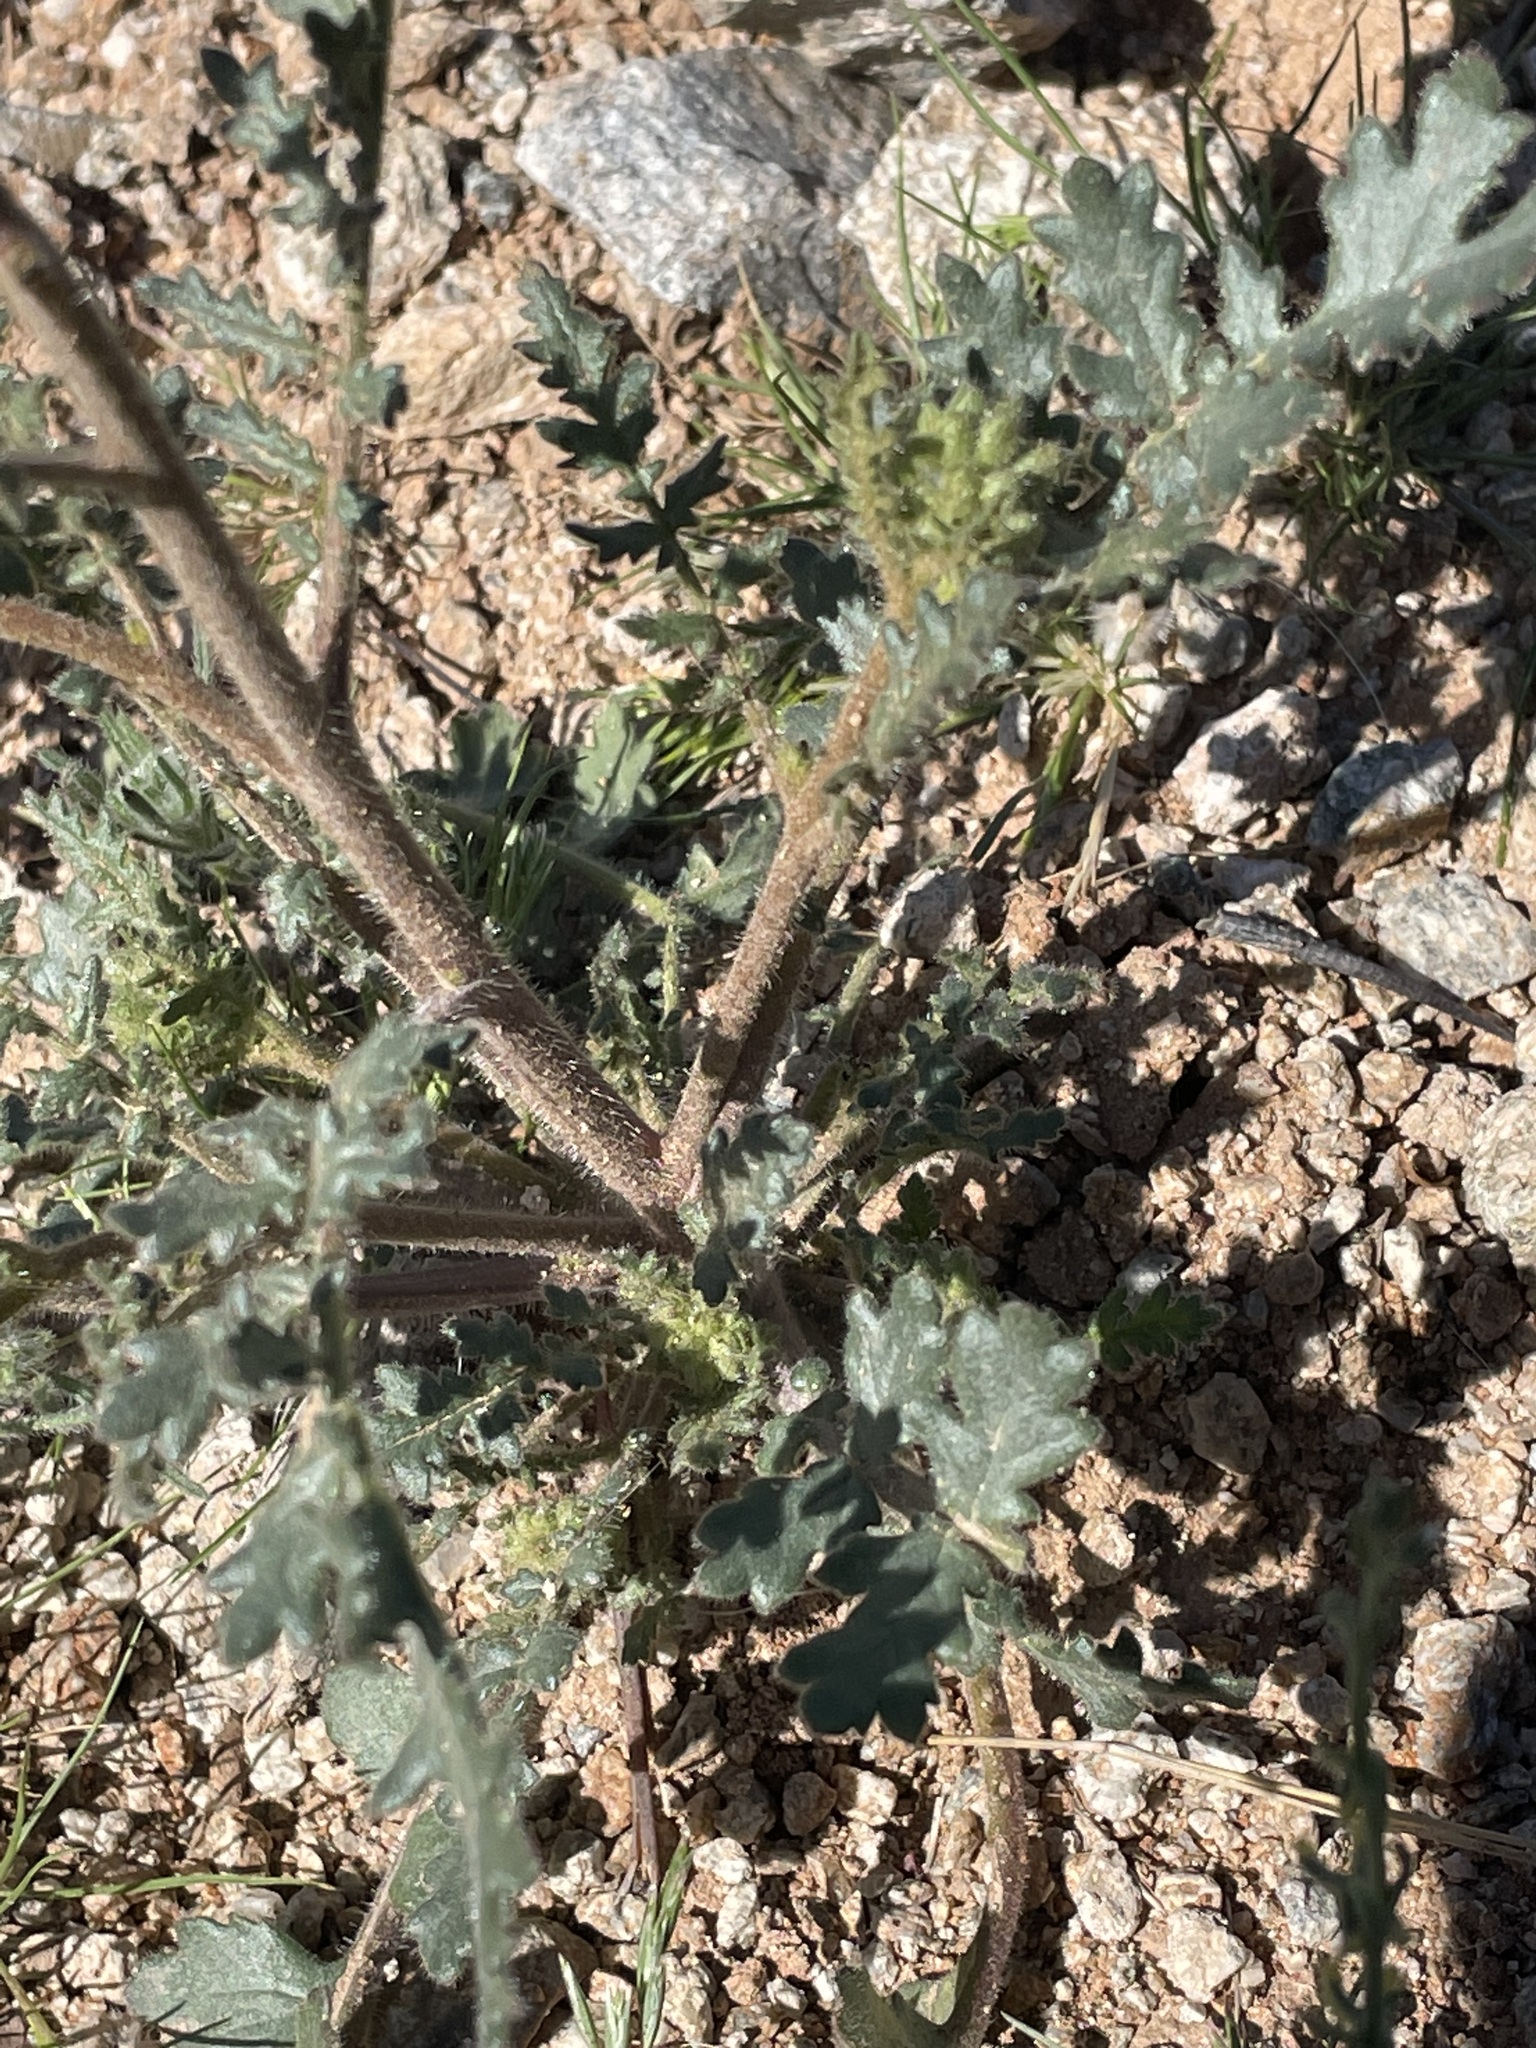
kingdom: Plantae
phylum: Tracheophyta
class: Magnoliopsida
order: Boraginales
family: Hydrophyllaceae
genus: Phacelia
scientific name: Phacelia crenulata
